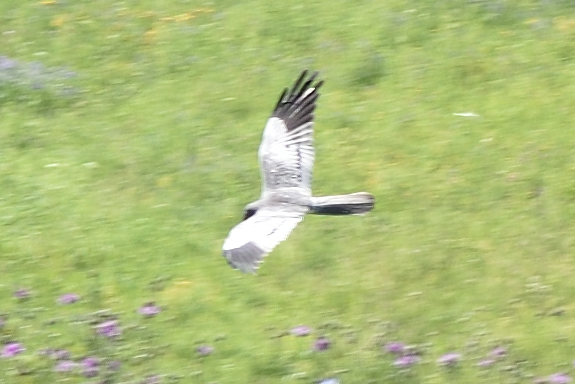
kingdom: Animalia
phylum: Chordata
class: Aves
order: Accipitriformes
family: Accipitridae
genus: Circus
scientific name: Circus pygargus
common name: Montagu's harrier
